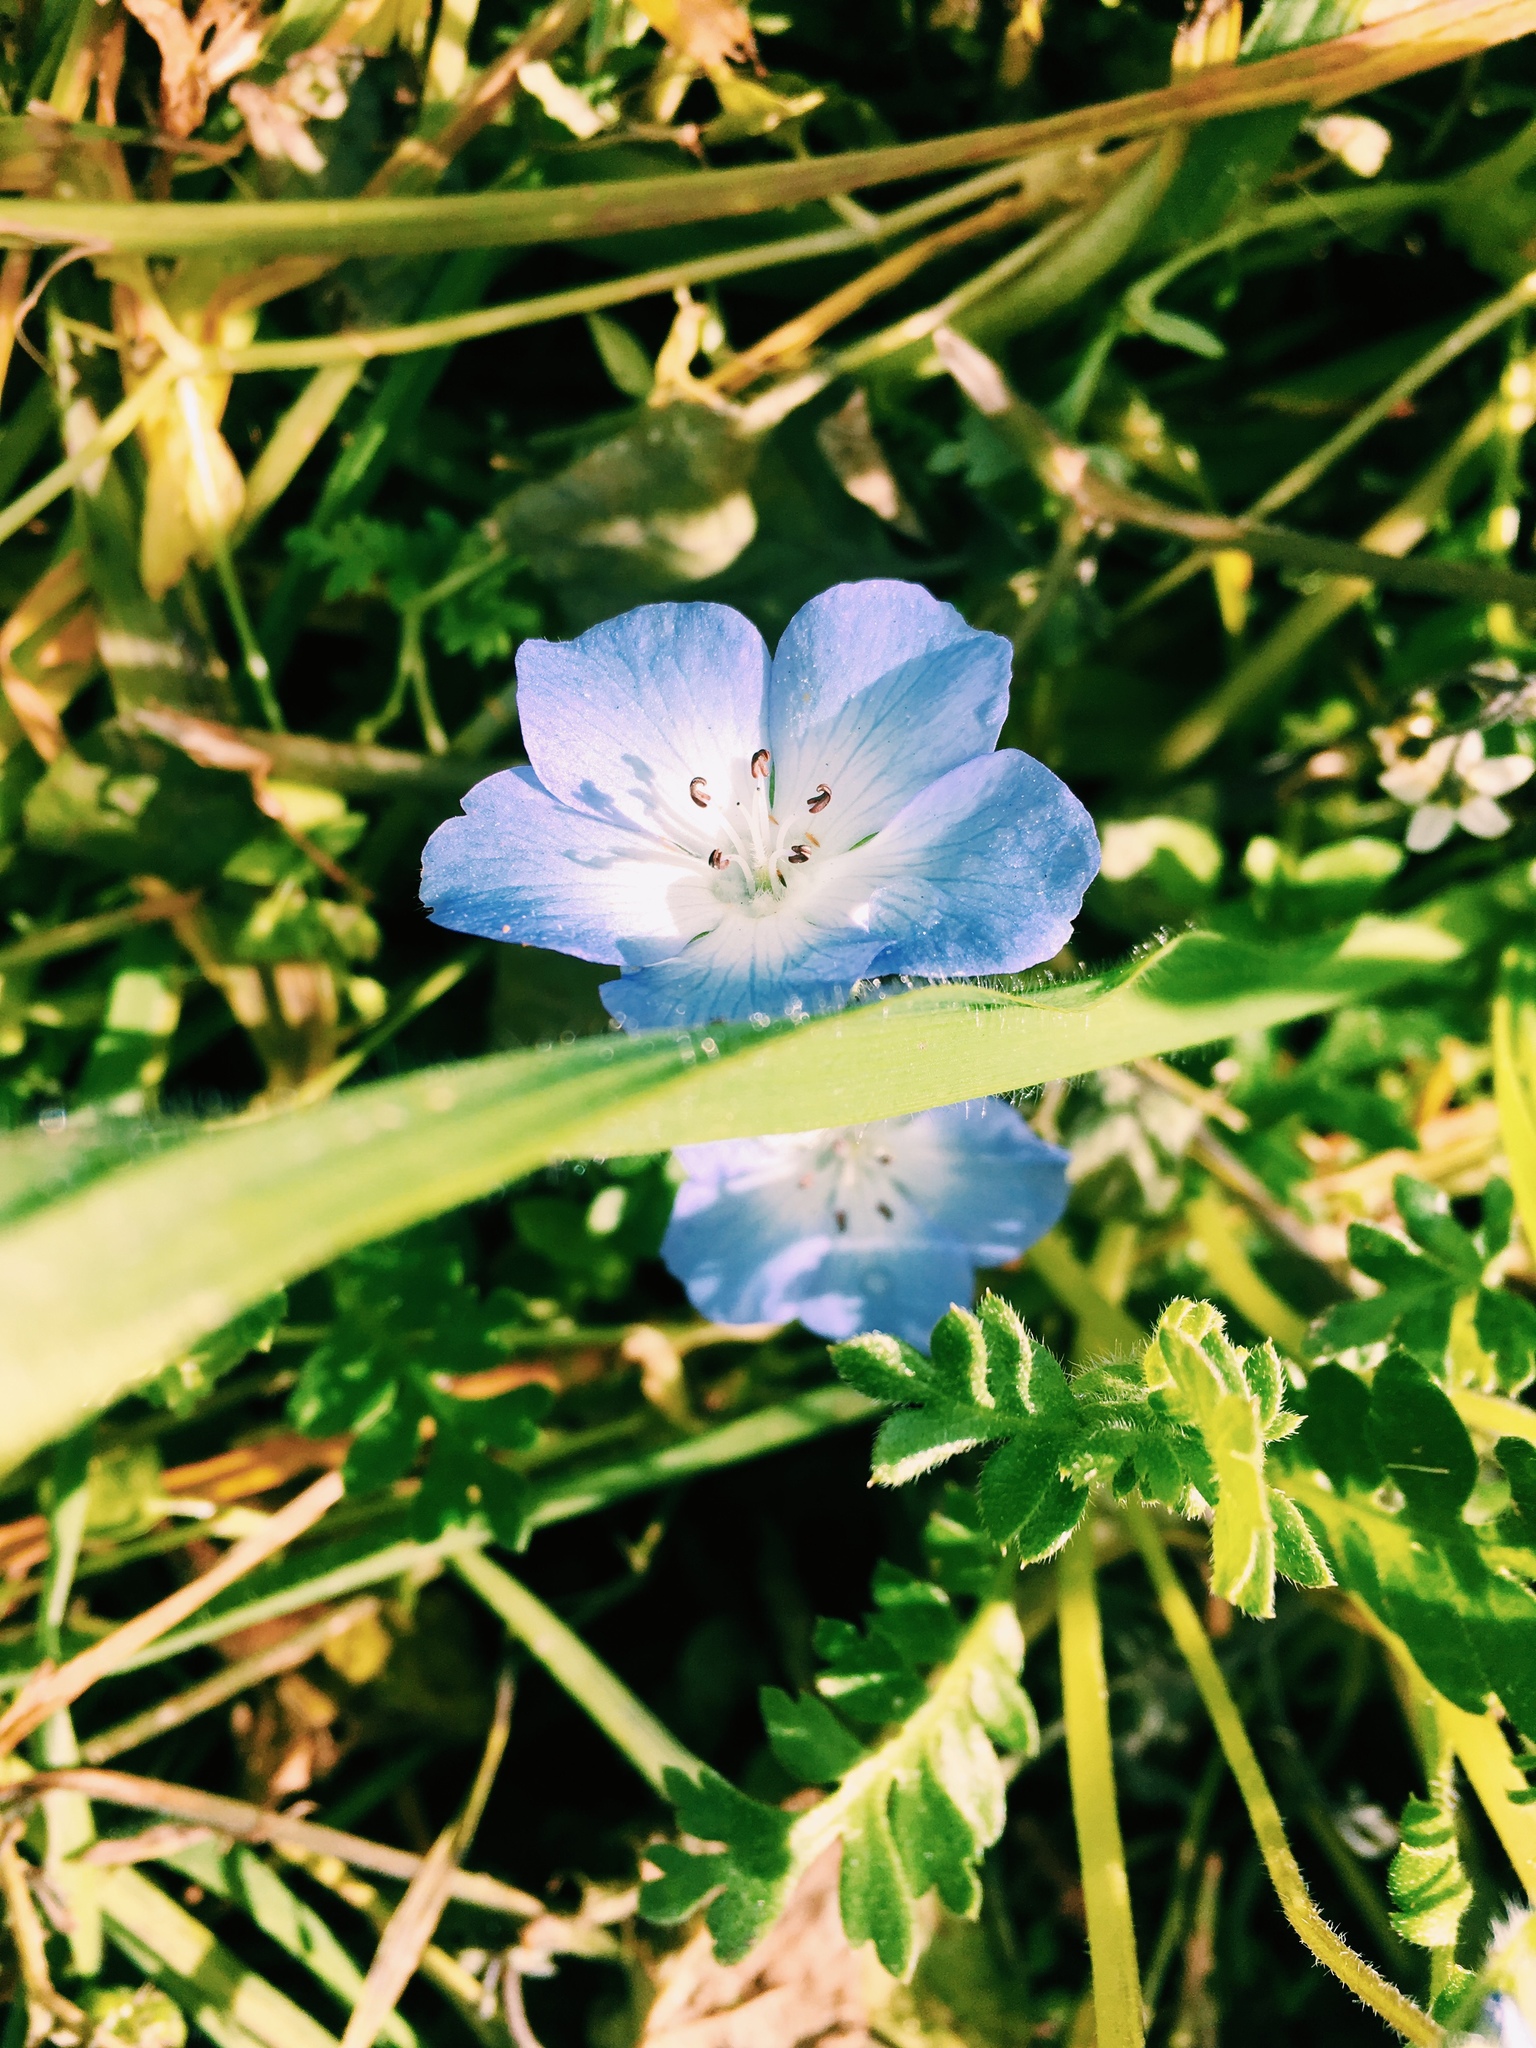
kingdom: Plantae
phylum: Tracheophyta
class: Magnoliopsida
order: Boraginales
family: Hydrophyllaceae
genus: Nemophila
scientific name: Nemophila menziesii
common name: Baby's-blue-eyes
